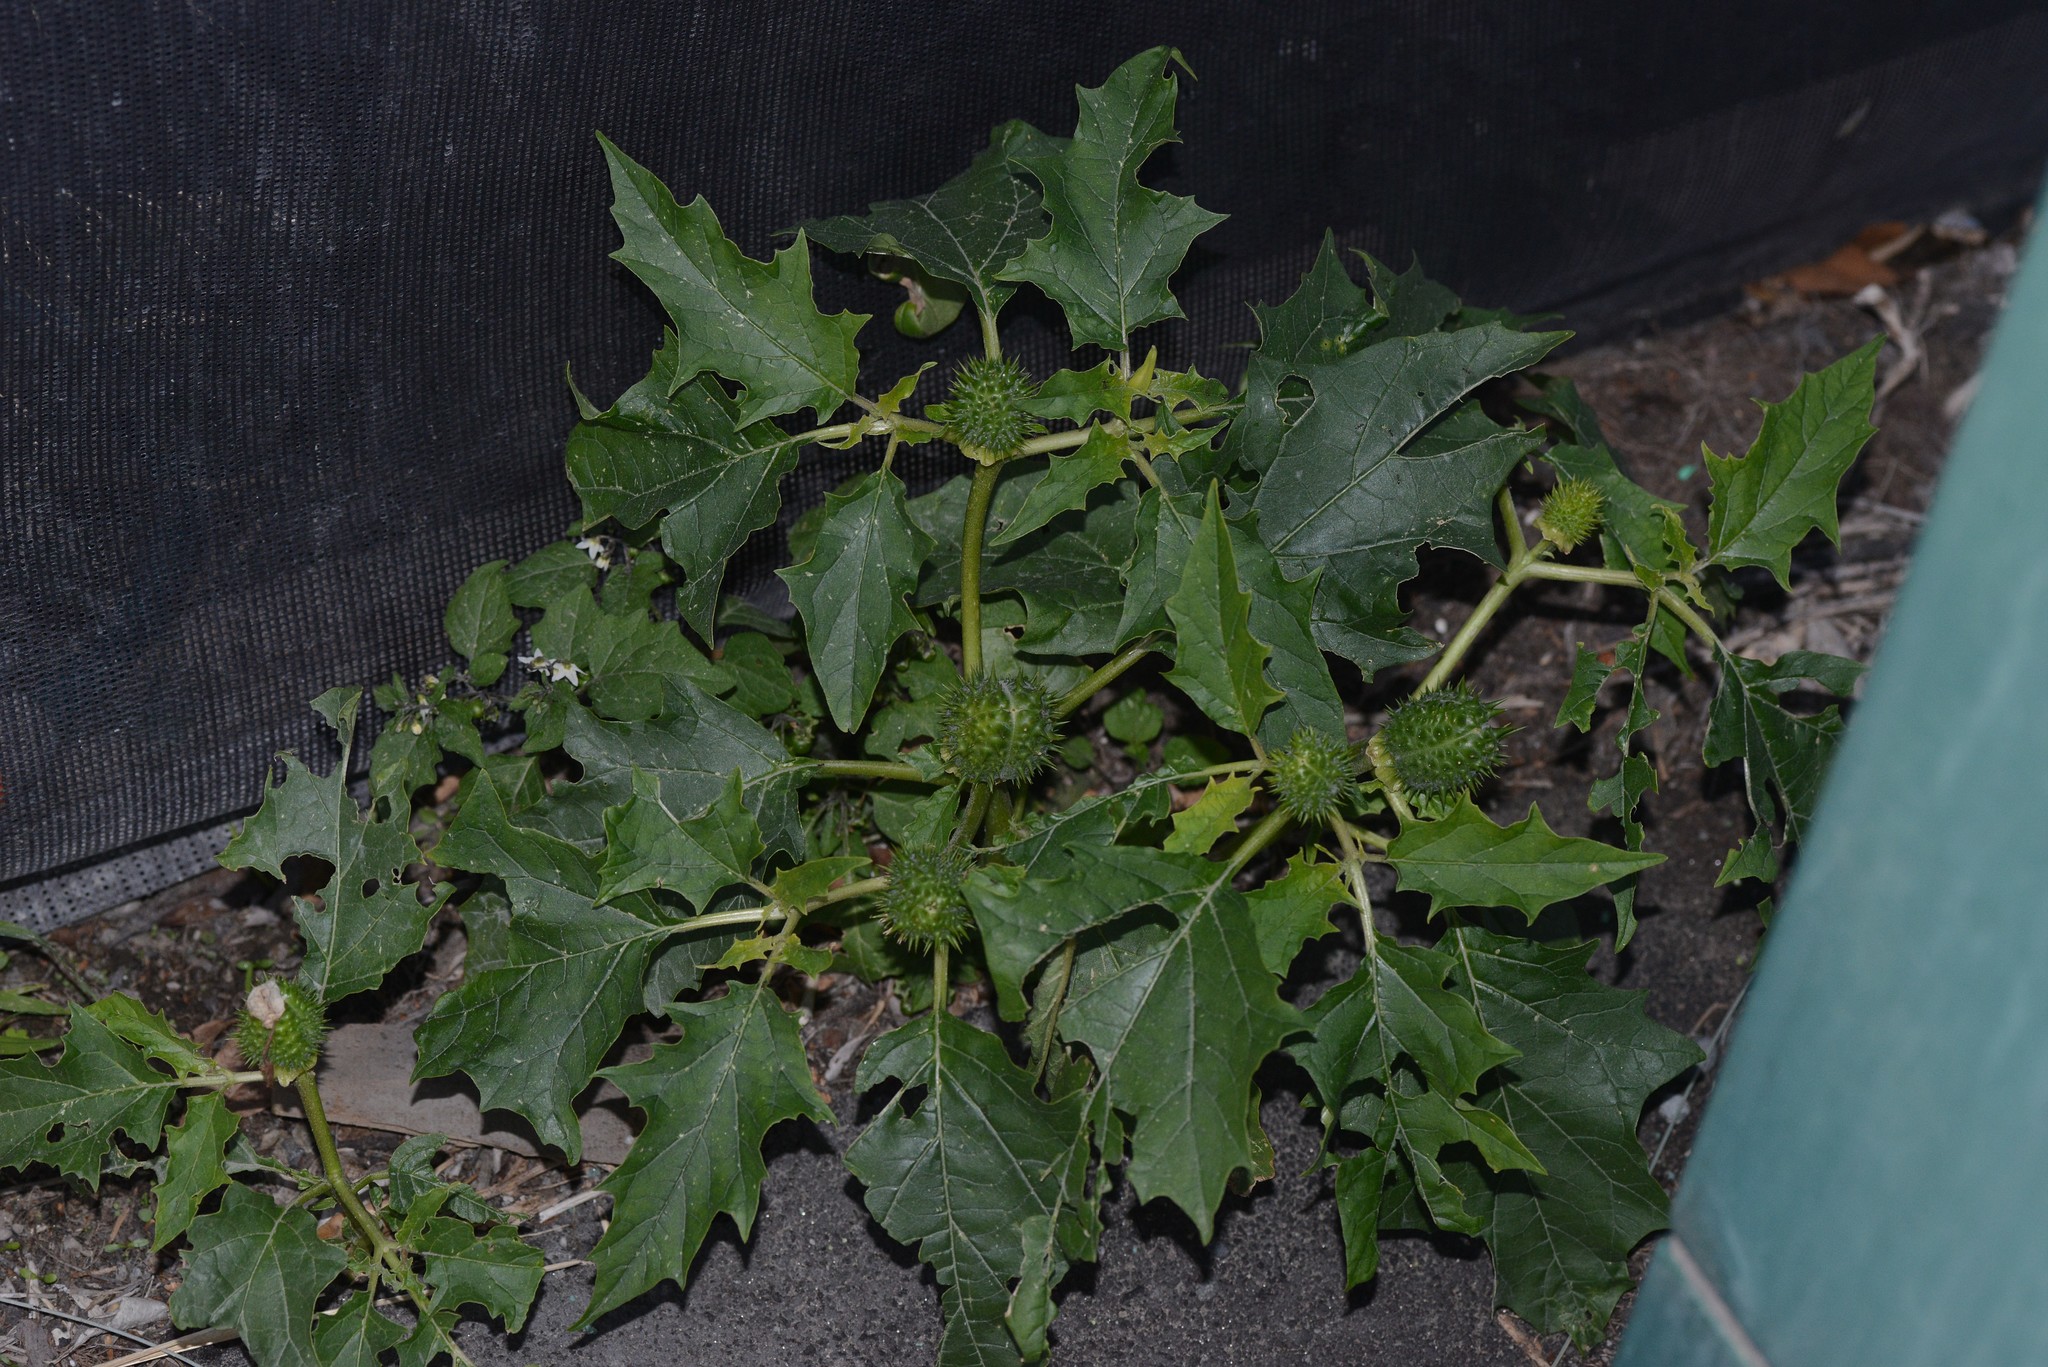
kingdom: Plantae
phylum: Tracheophyta
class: Magnoliopsida
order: Solanales
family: Solanaceae
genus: Datura
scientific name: Datura stramonium
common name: Thorn-apple
